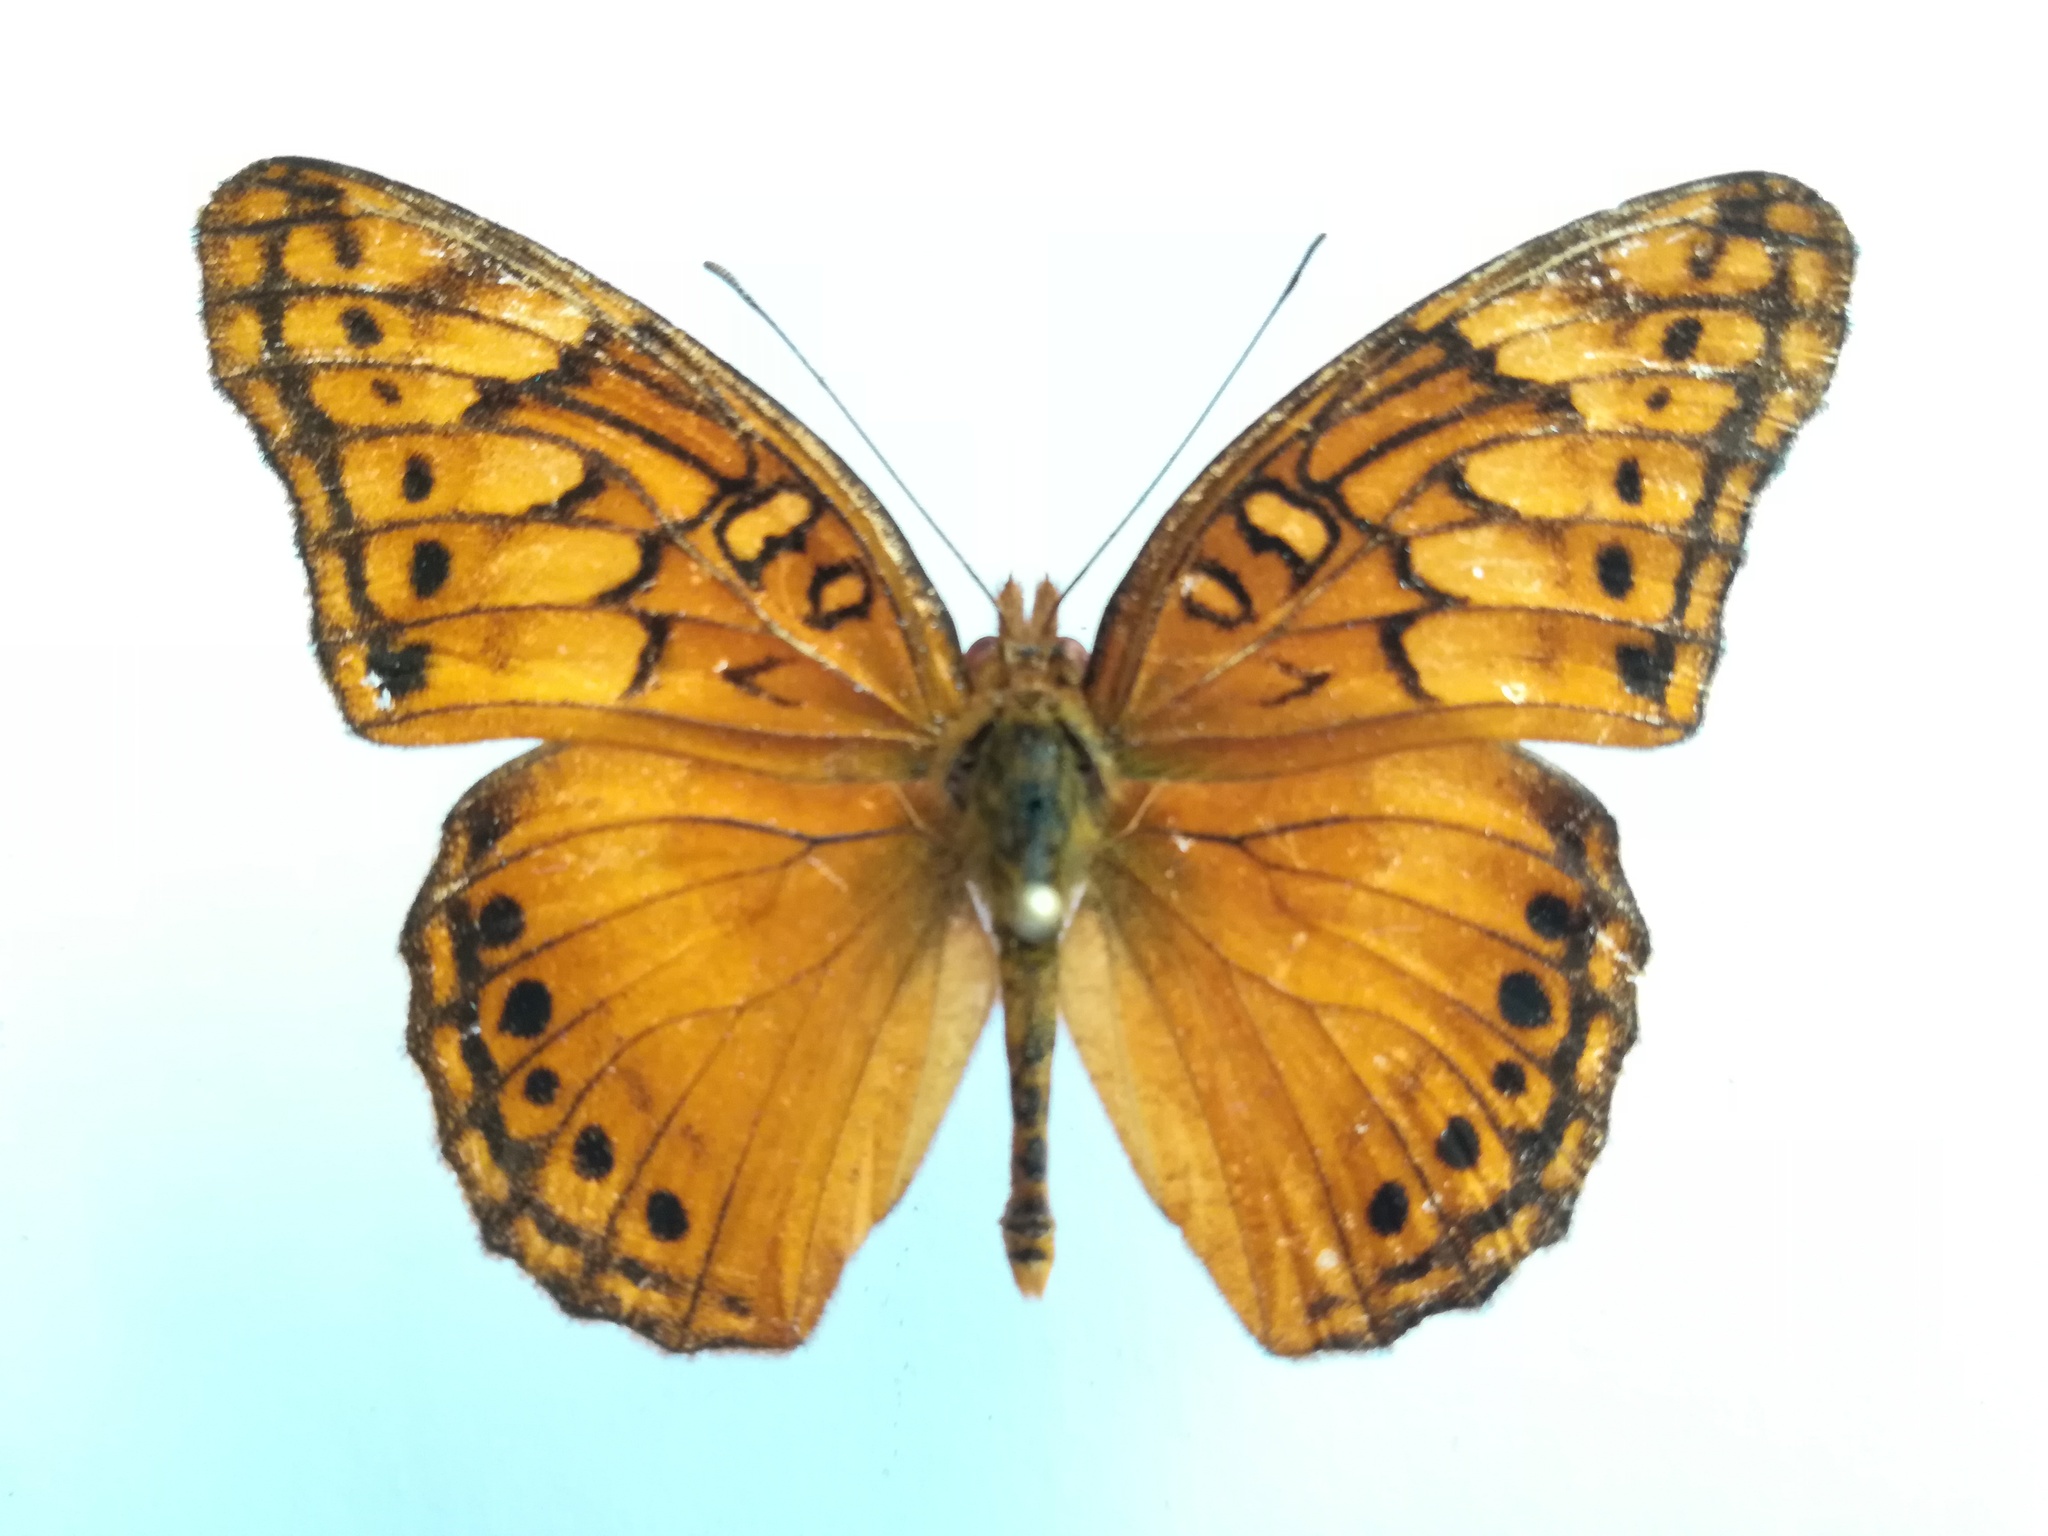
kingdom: Animalia
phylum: Arthropoda
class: Insecta
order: Lepidoptera
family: Nymphalidae
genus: Euptoieta
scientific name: Euptoieta hegesia
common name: Mexican fritillary
